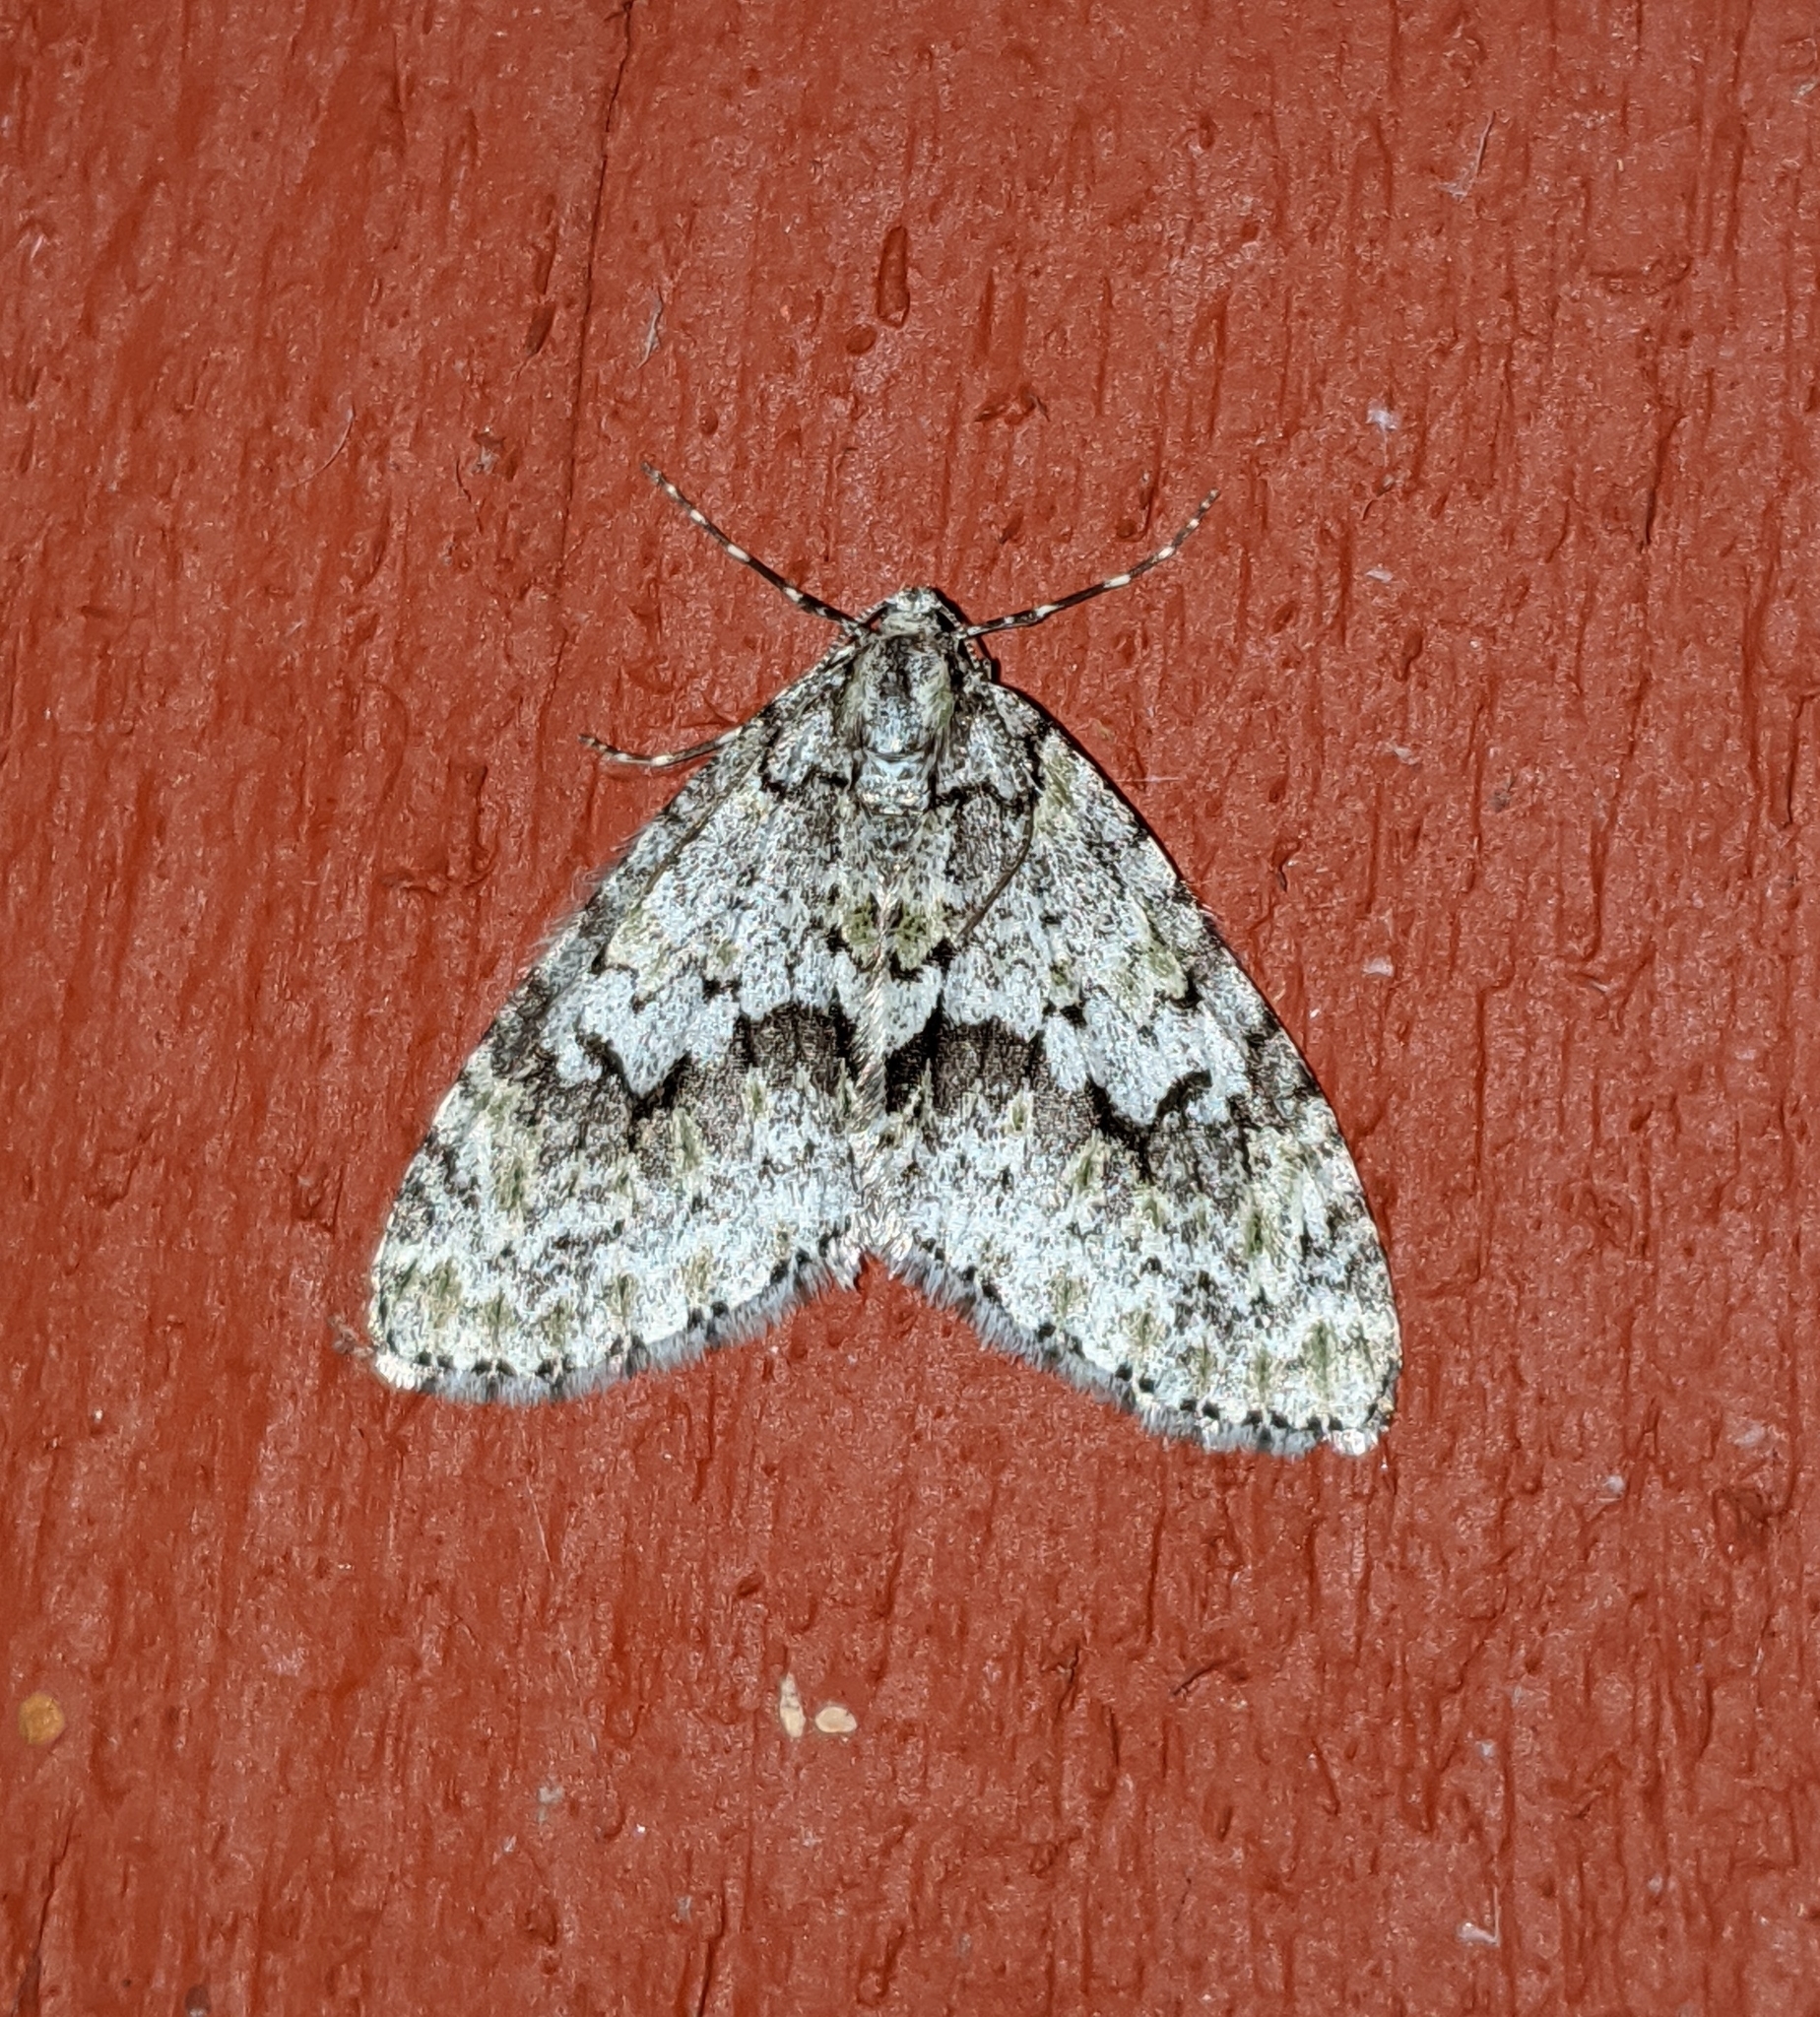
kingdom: Animalia
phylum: Arthropoda
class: Insecta
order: Lepidoptera
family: Geometridae
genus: Cladara
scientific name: Cladara limitaria
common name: Mottled gray carpet
